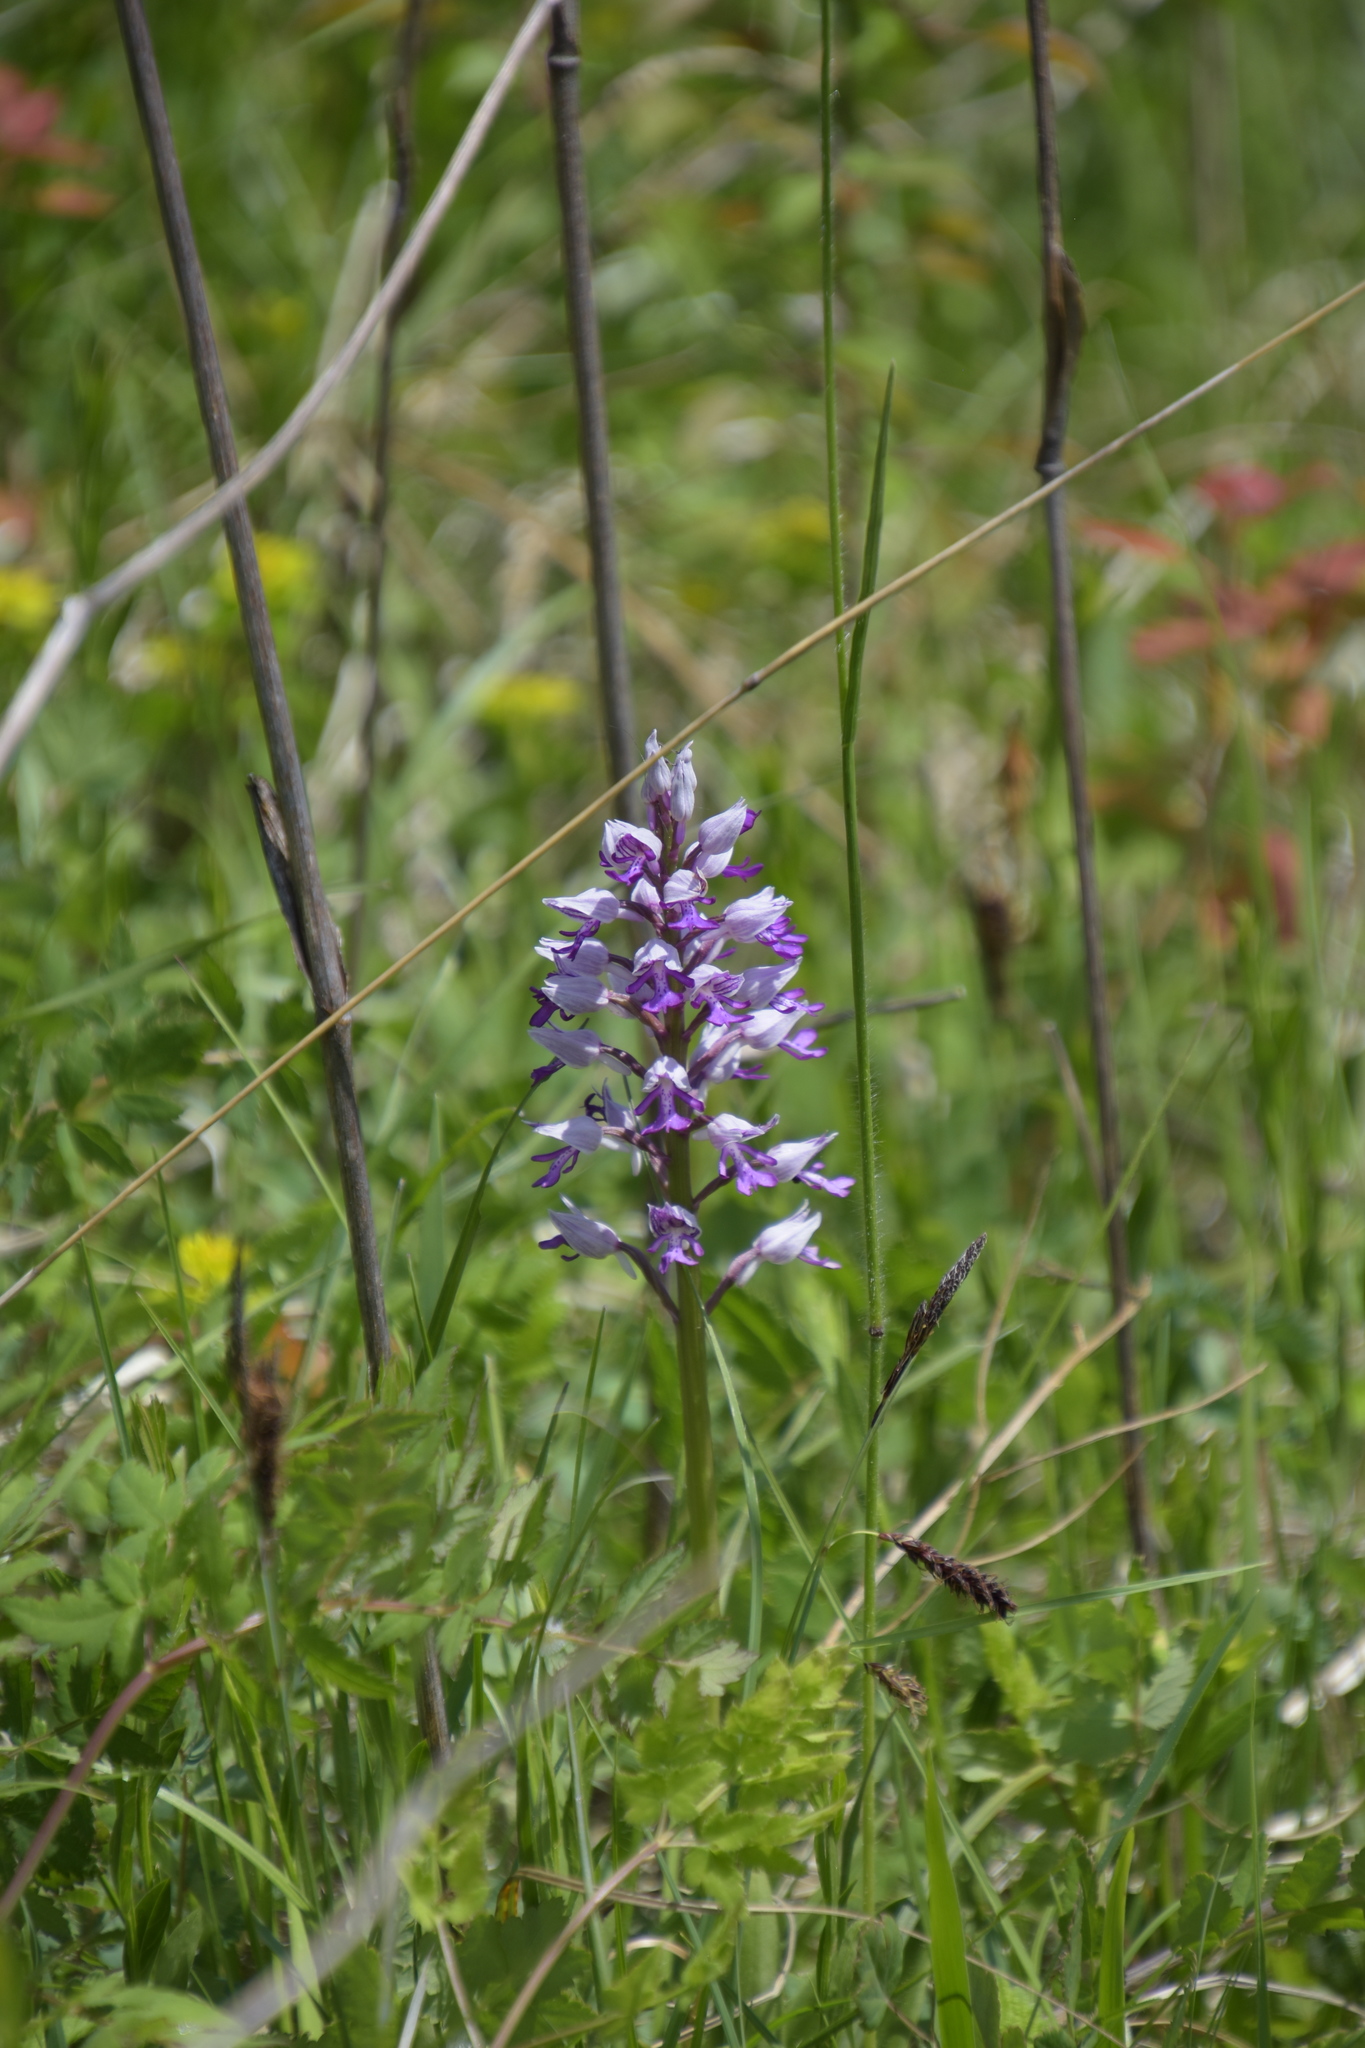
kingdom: Plantae
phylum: Tracheophyta
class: Liliopsida
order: Asparagales
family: Orchidaceae
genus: Orchis
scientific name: Orchis militaris
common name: Military orchid
